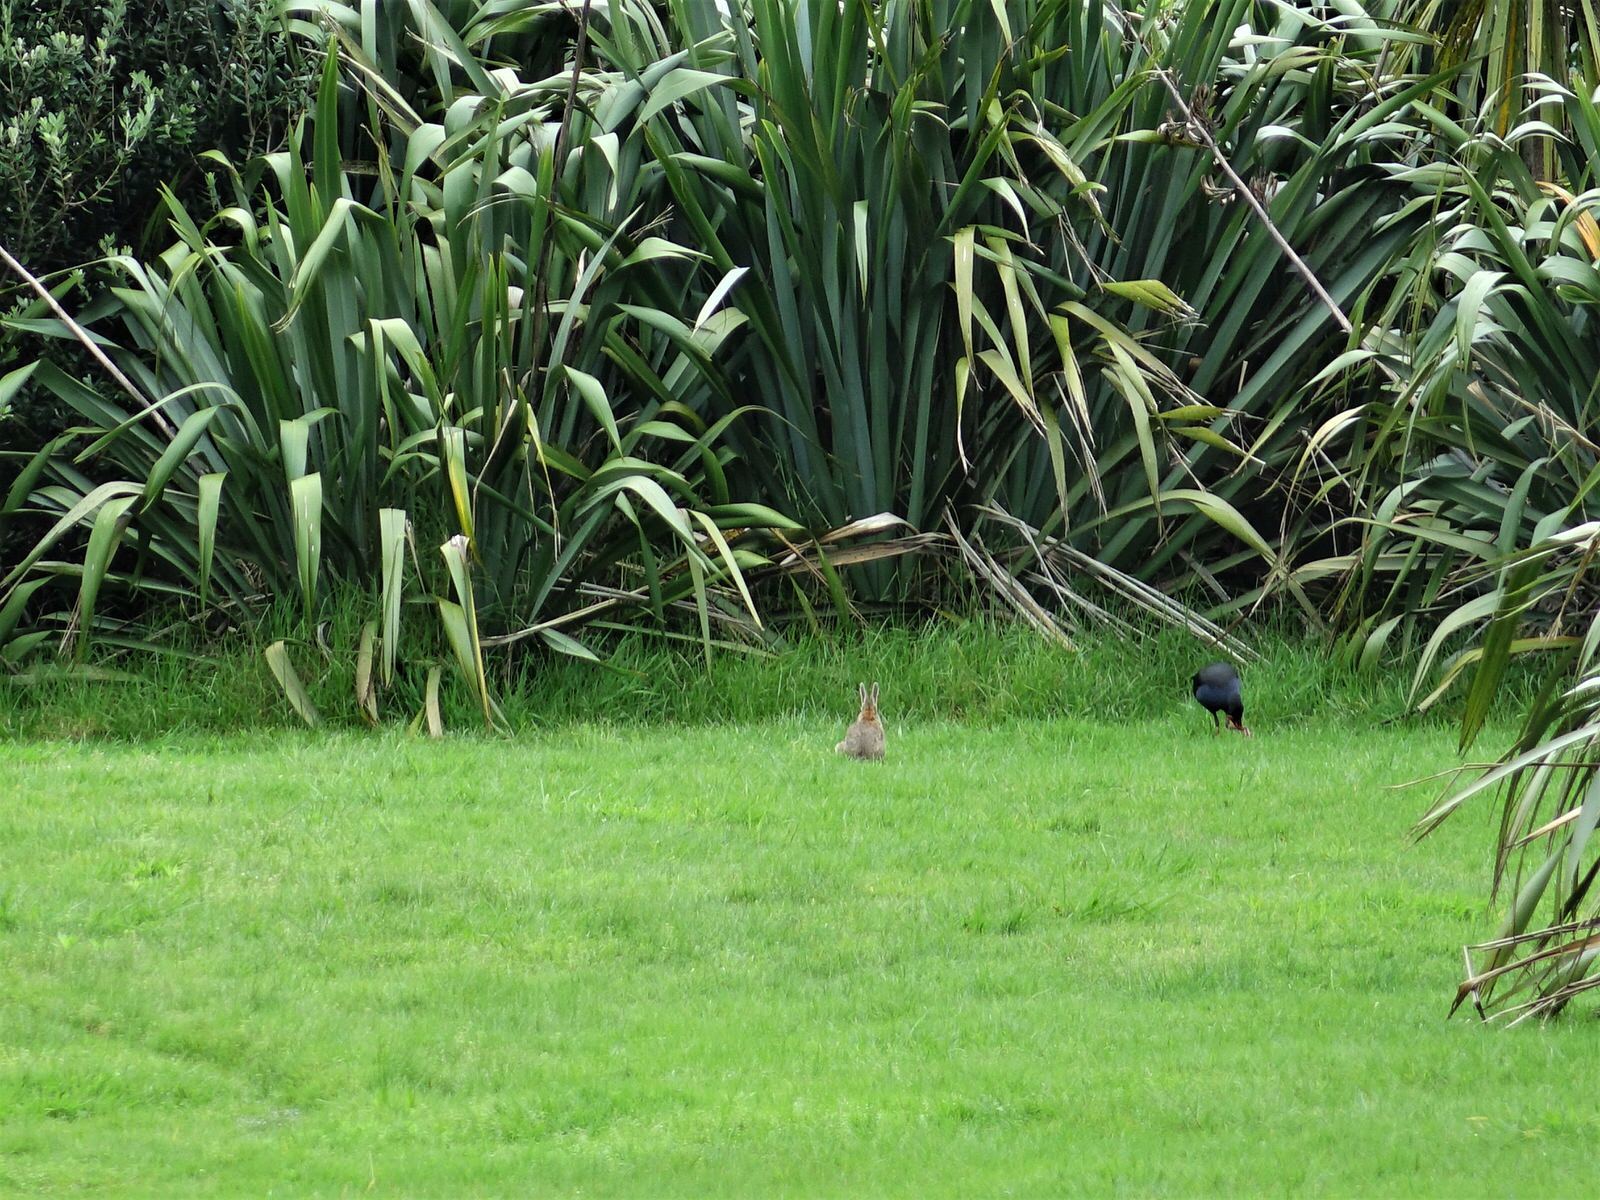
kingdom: Animalia
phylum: Chordata
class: Mammalia
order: Lagomorpha
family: Leporidae
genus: Oryctolagus
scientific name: Oryctolagus cuniculus
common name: European rabbit
